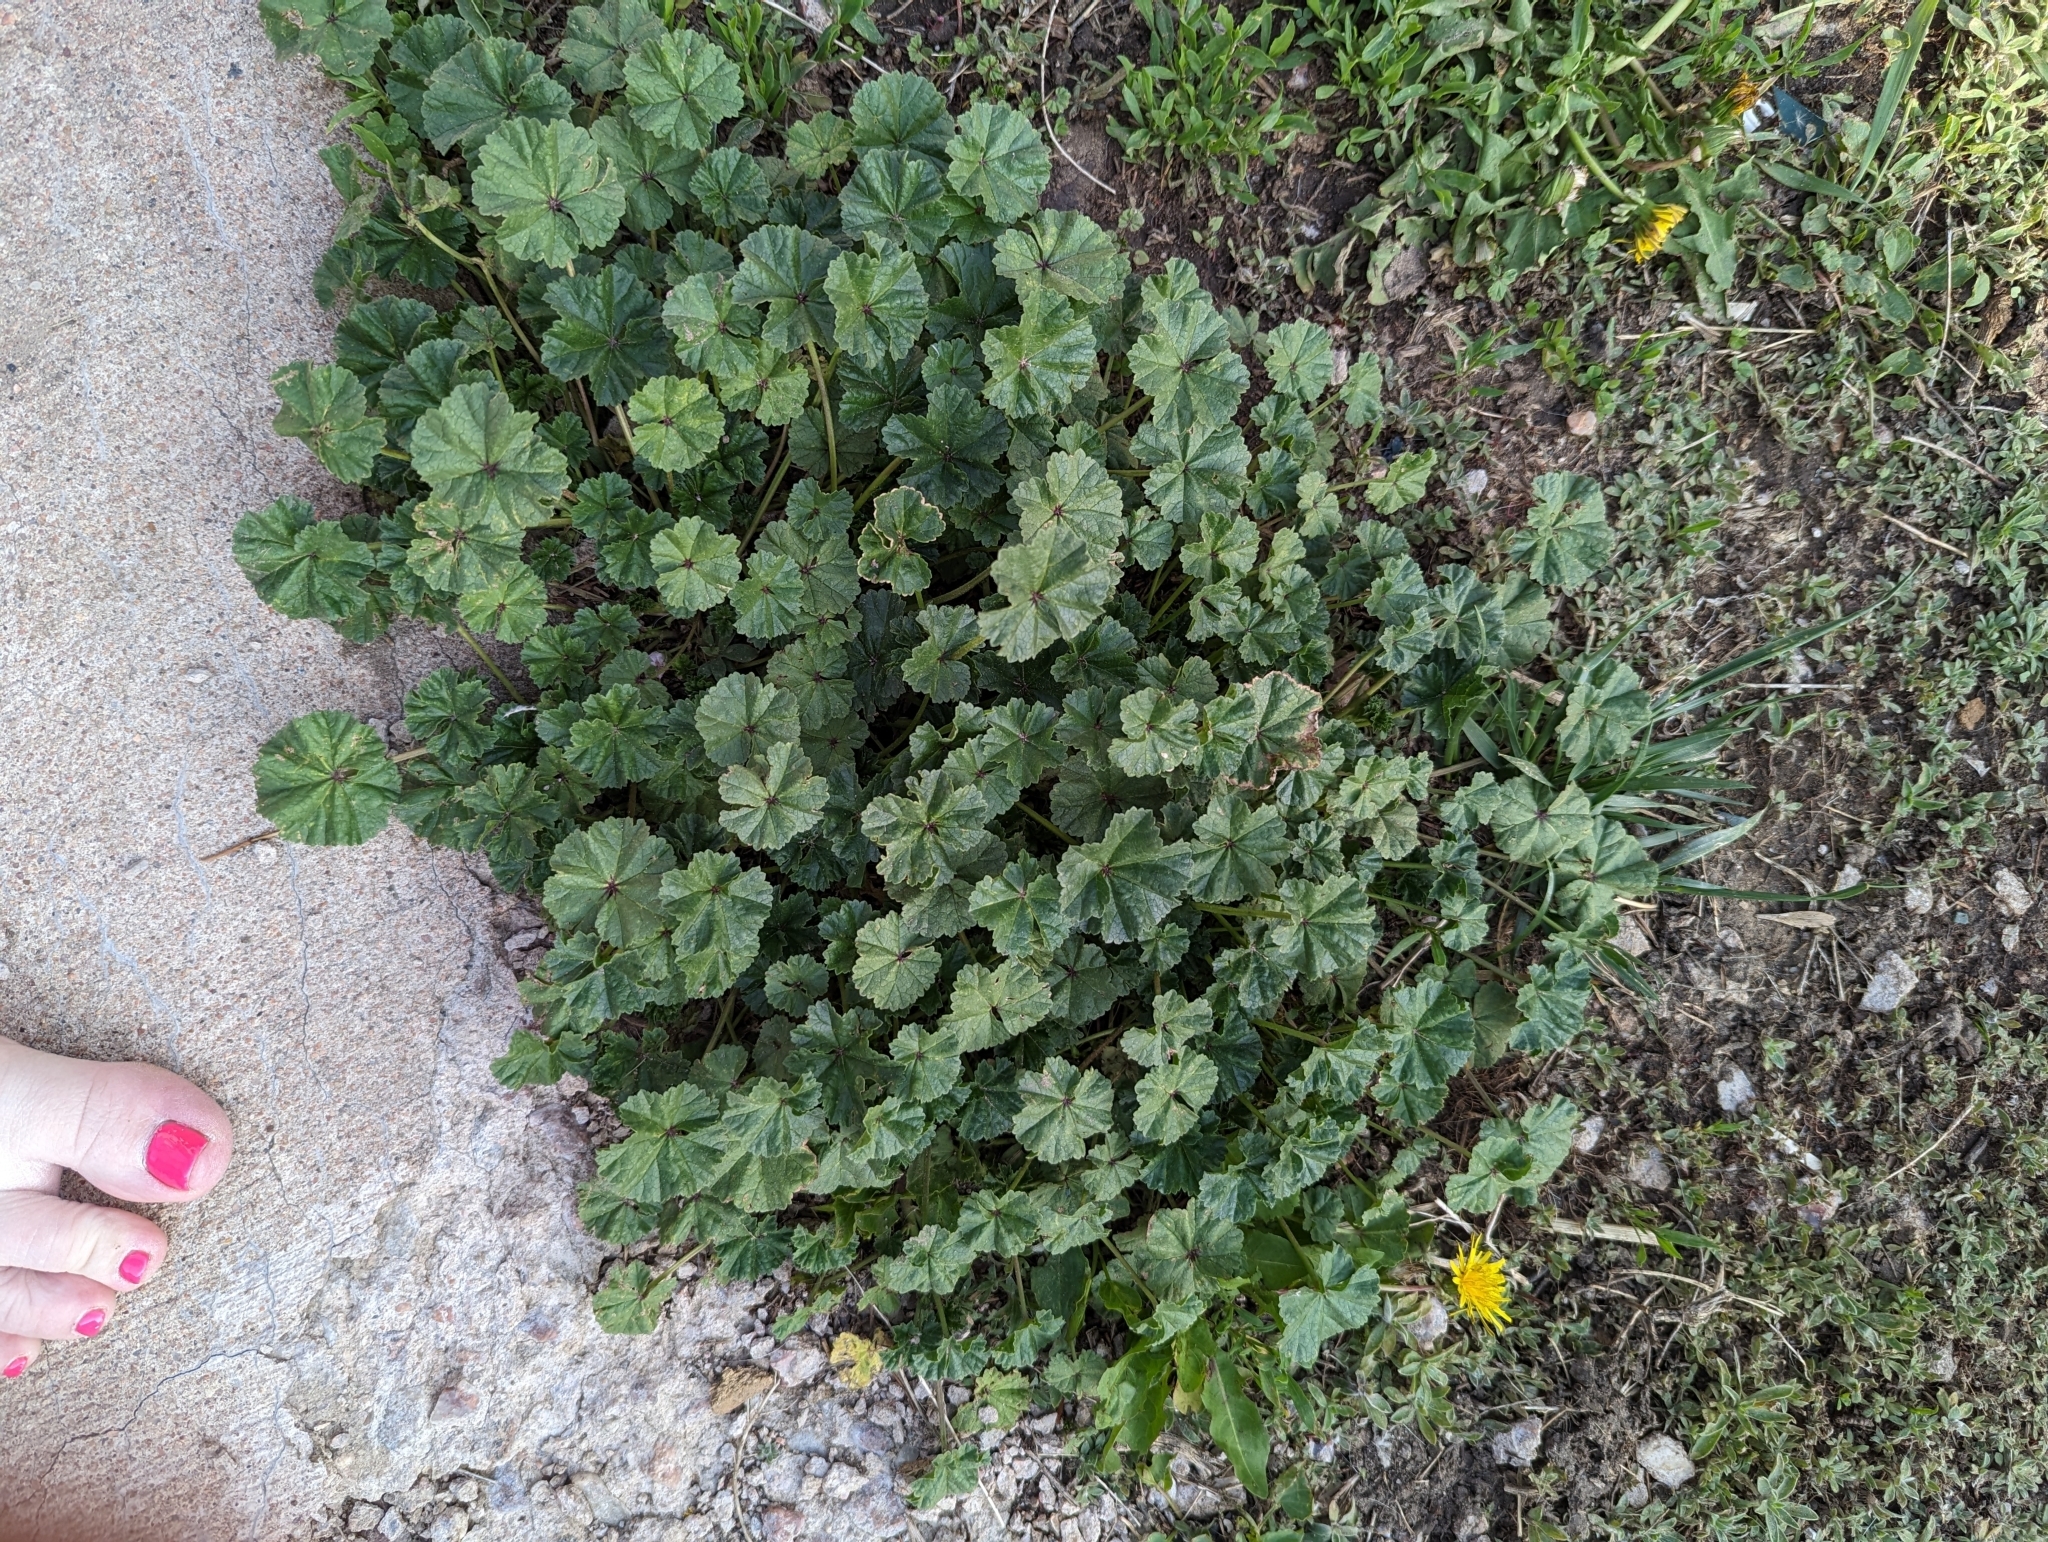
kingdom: Plantae
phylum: Tracheophyta
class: Magnoliopsida
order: Malvales
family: Malvaceae
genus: Malva
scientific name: Malva neglecta
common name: Common mallow
